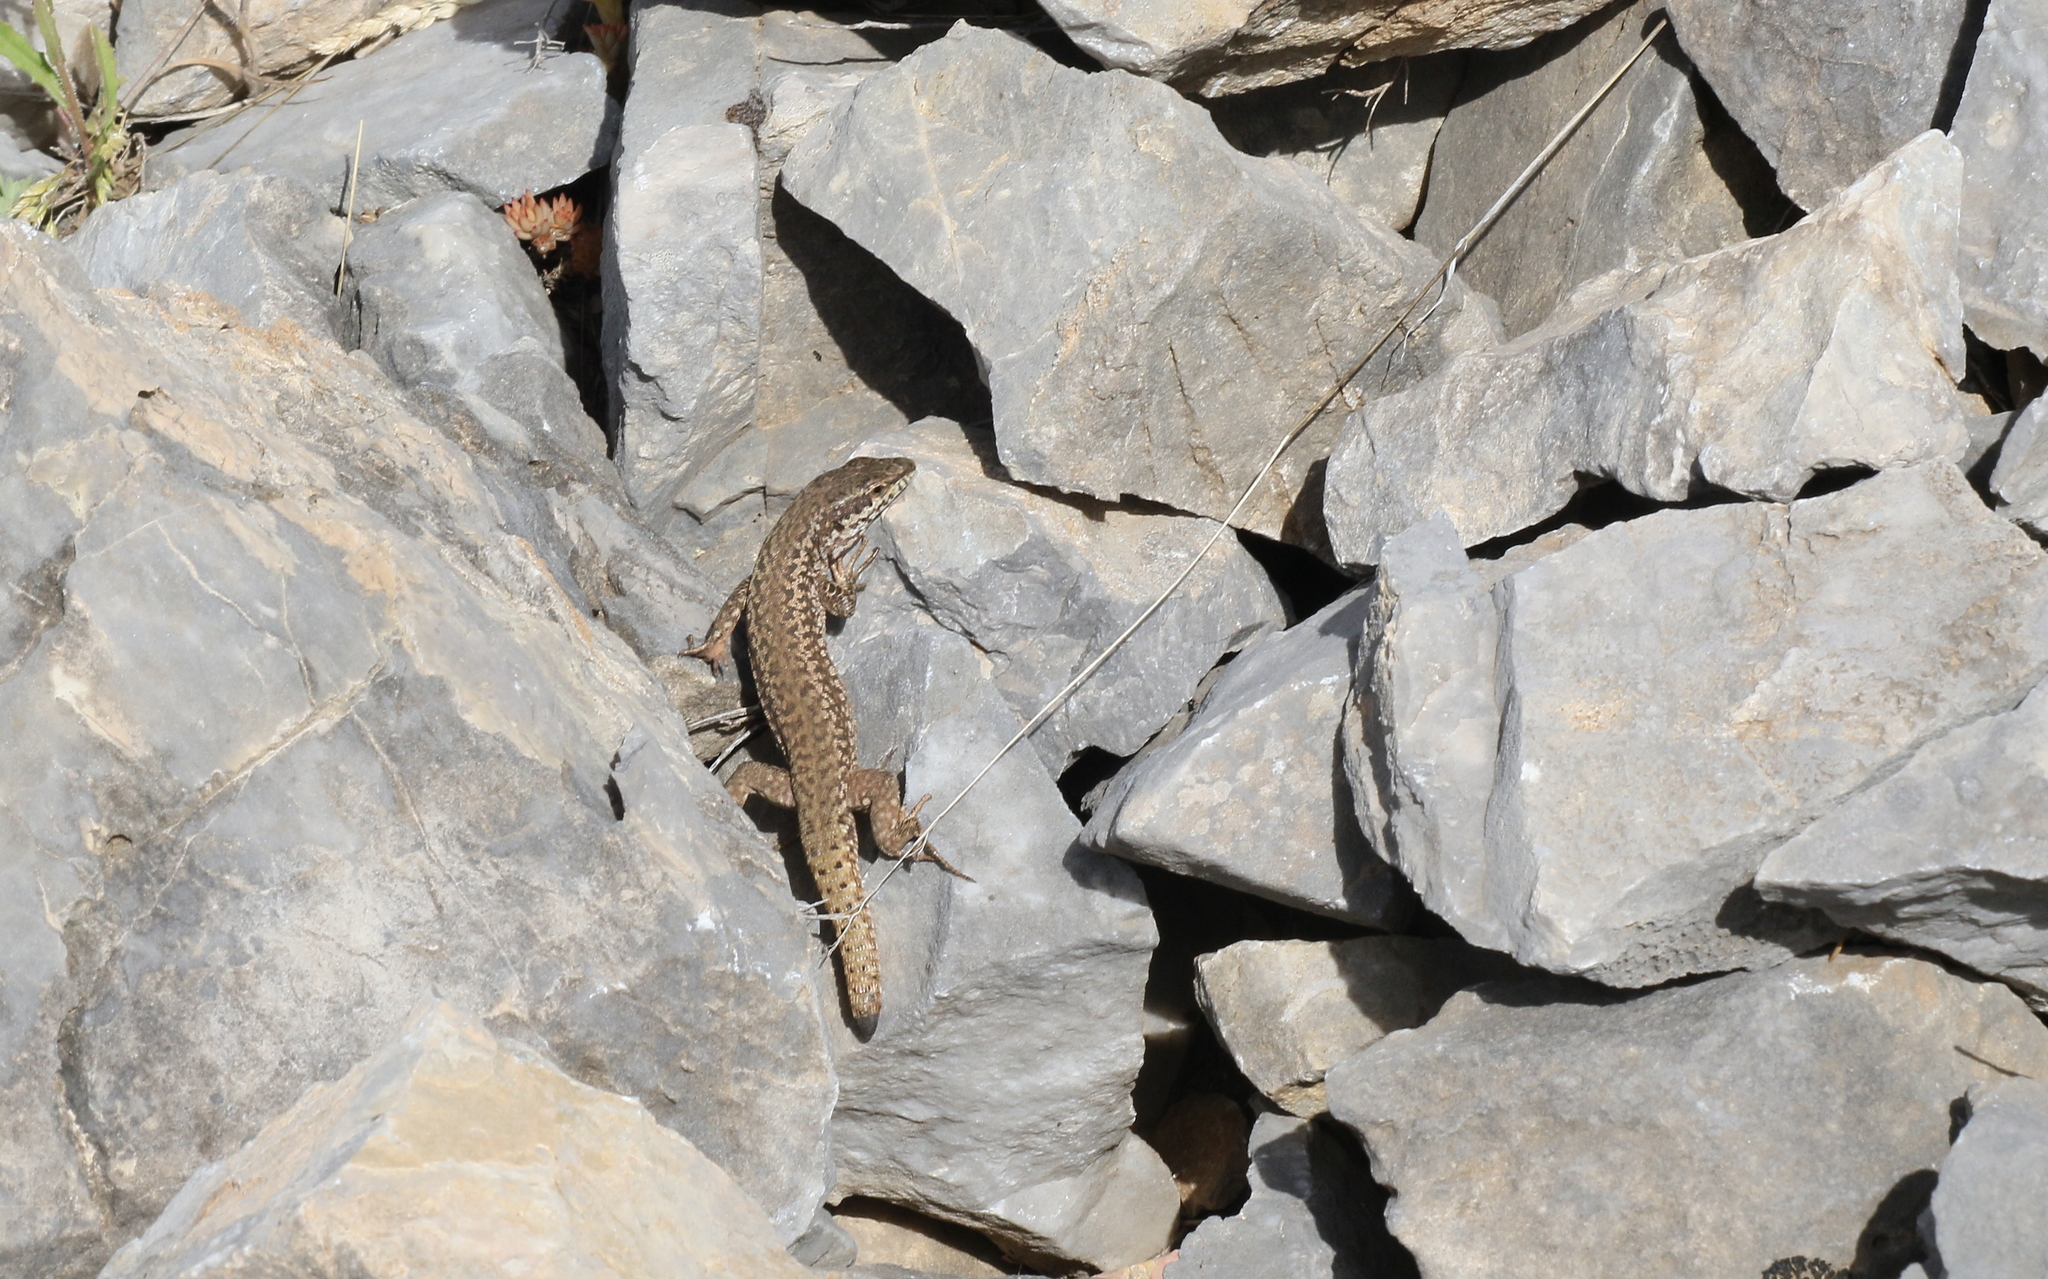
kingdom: Animalia
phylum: Chordata
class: Squamata
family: Lacertidae
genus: Podarcis
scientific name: Podarcis erhardii
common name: Erhard's wall lizard
